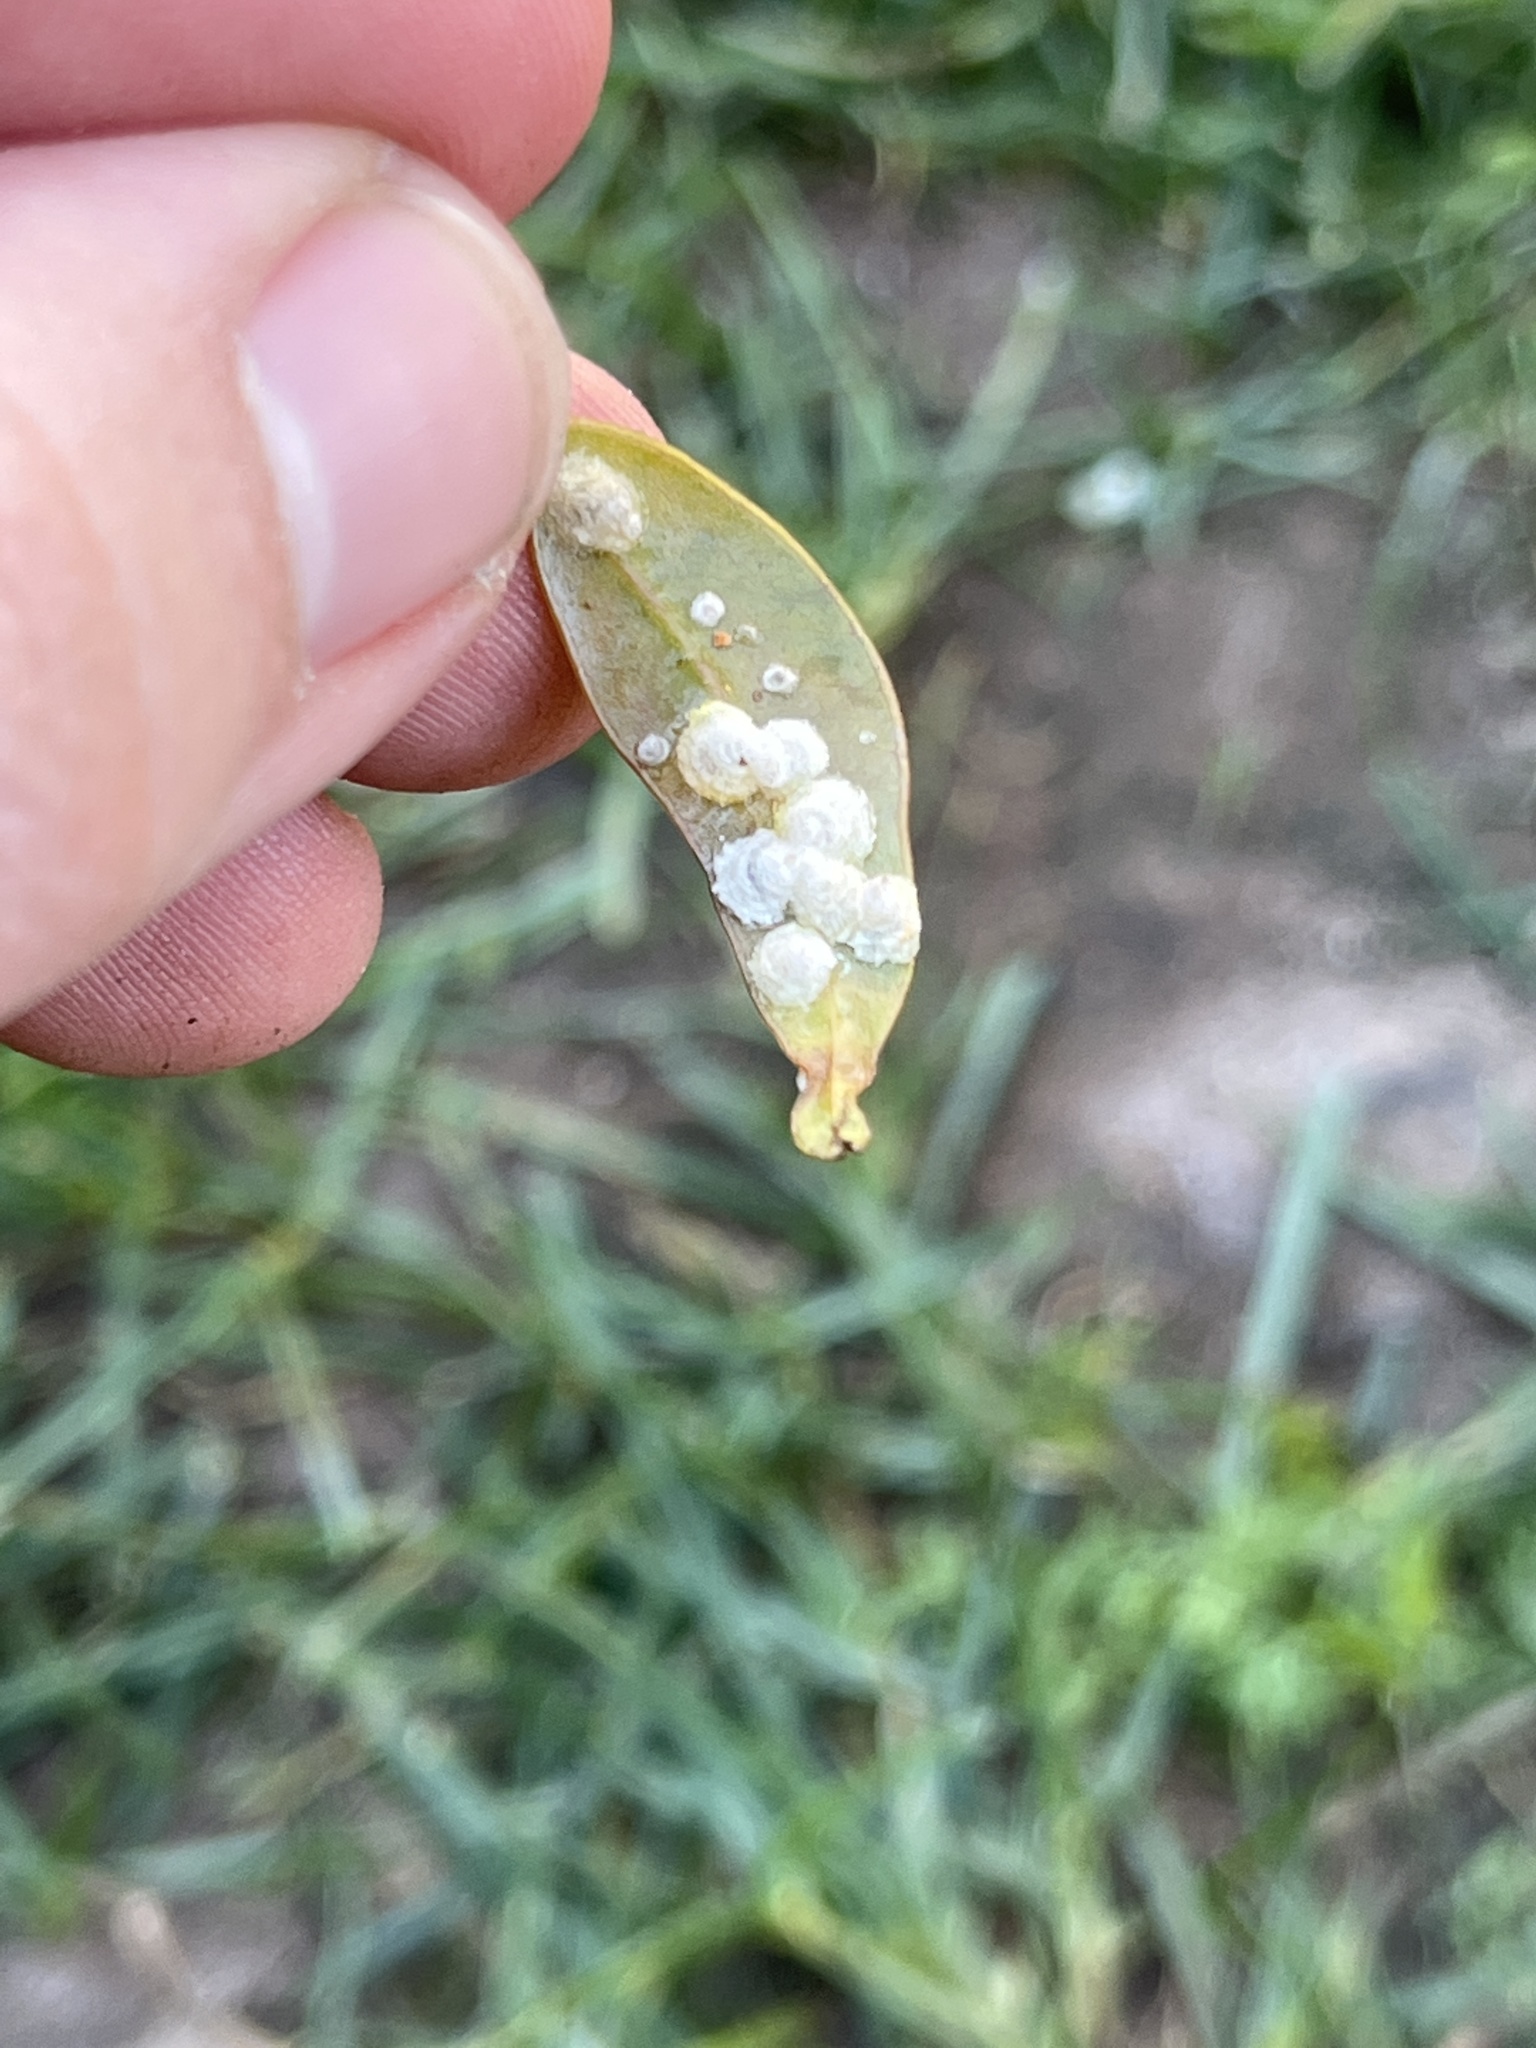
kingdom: Animalia
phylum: Arthropoda
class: Insecta
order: Hemiptera
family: Aphalaridae
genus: Glycaspis
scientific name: Glycaspis brimblecombei
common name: Red gum lerp psyllid
